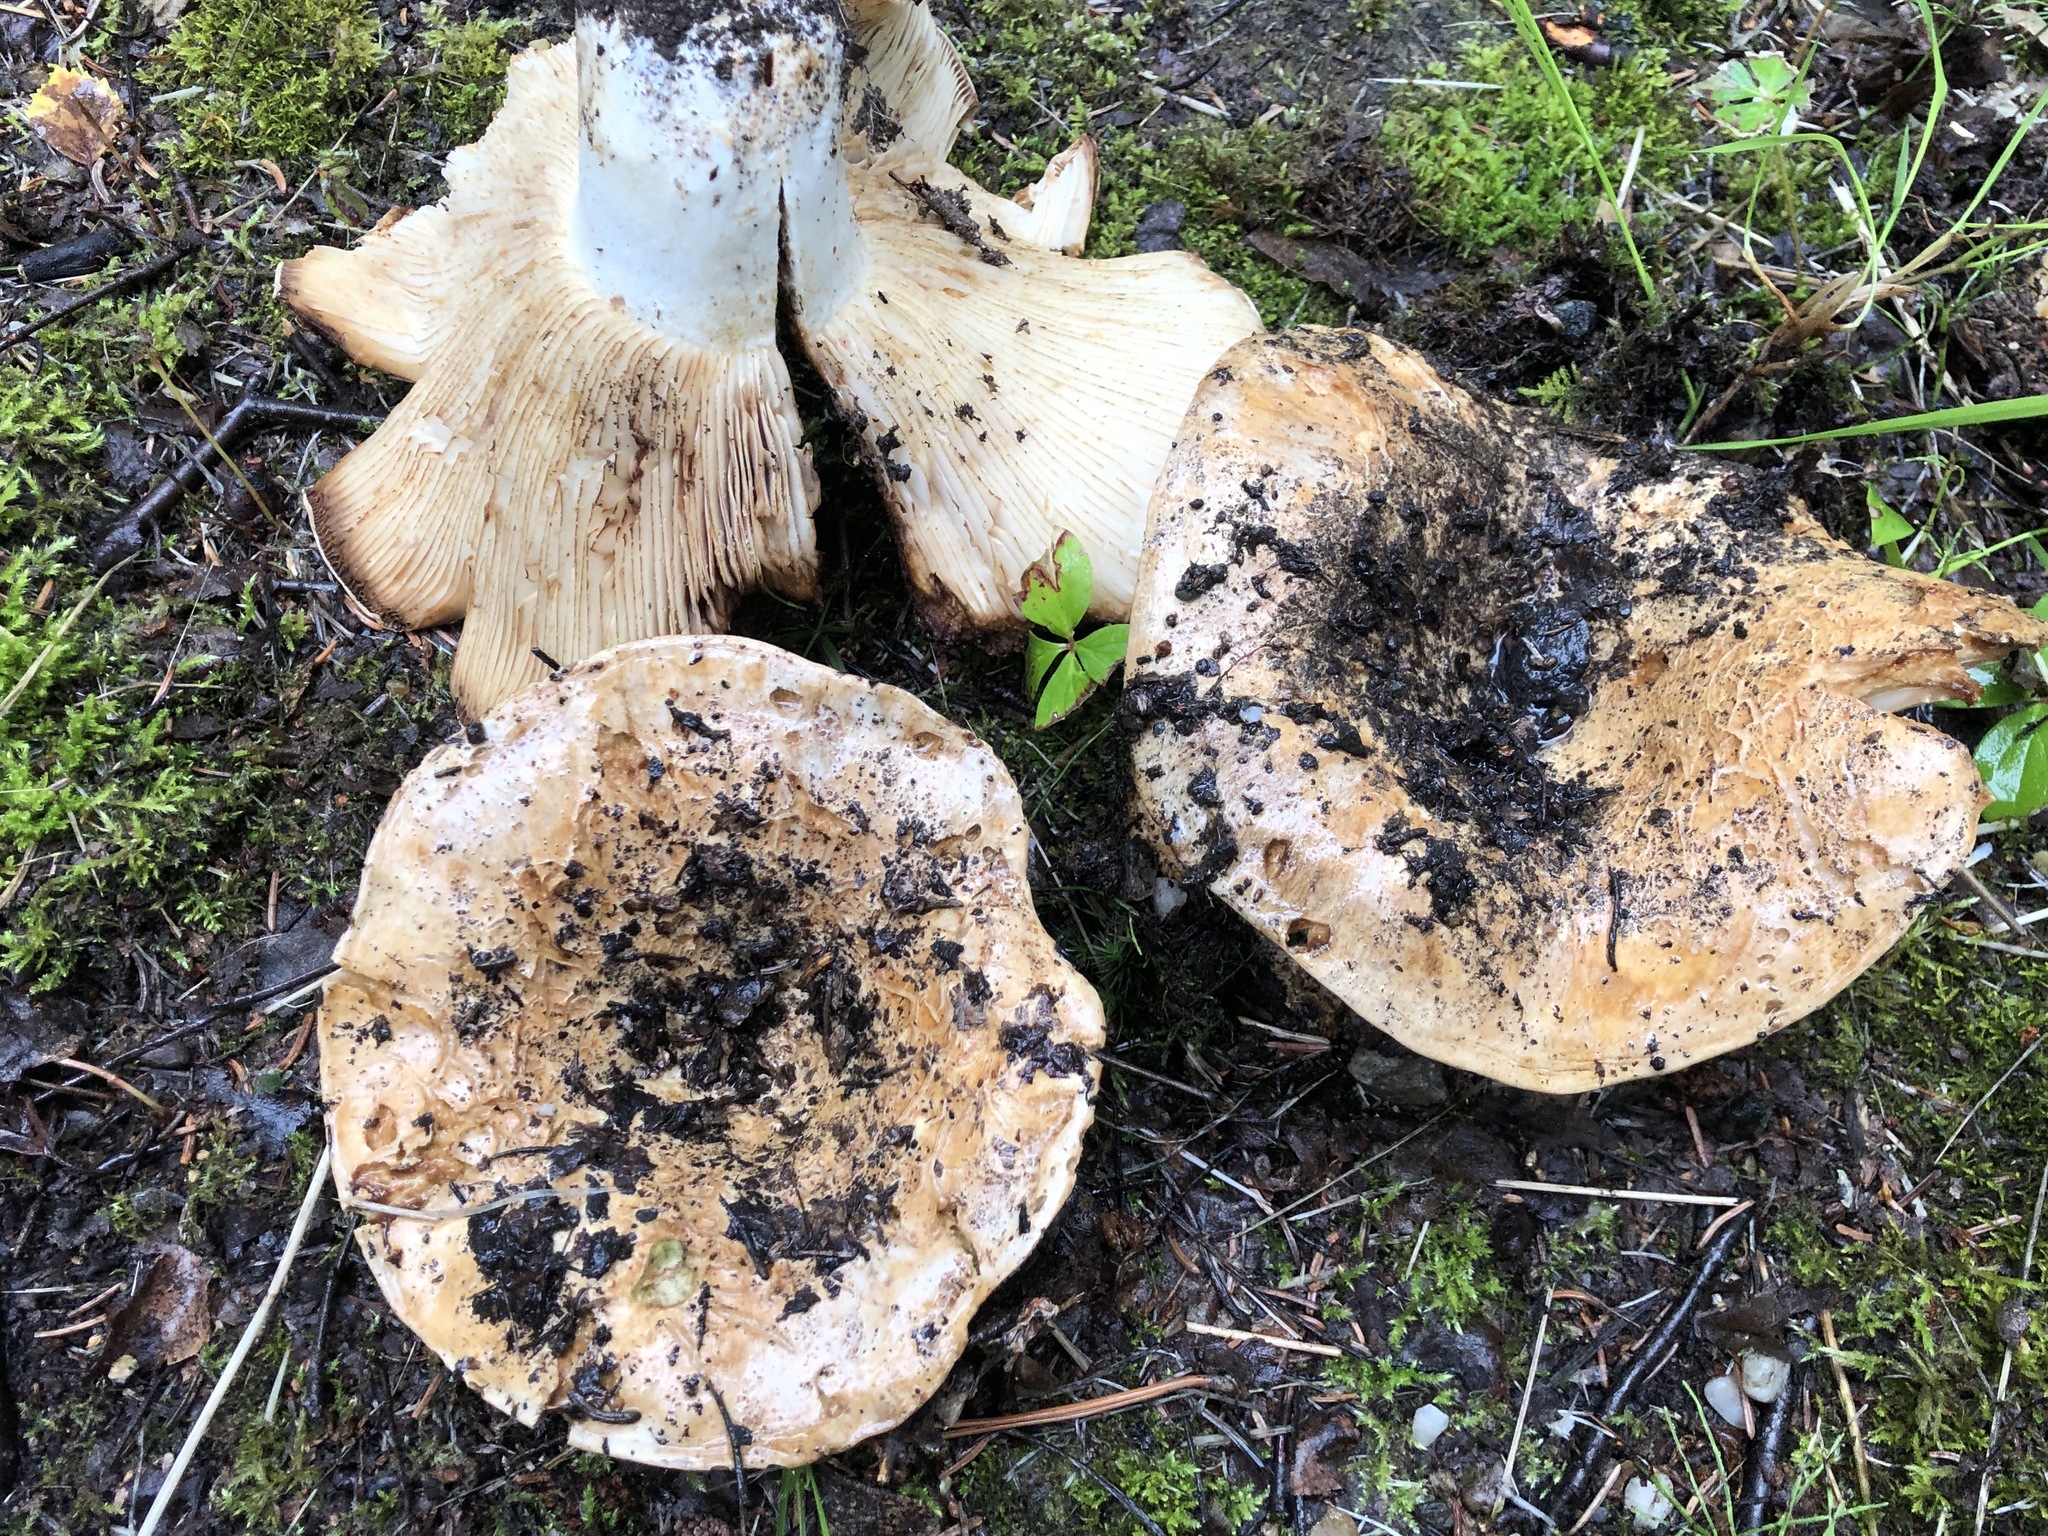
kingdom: Fungi
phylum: Basidiomycota
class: Agaricomycetes
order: Russulales
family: Russulaceae
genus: Russula
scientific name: Russula brevipes
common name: Short-stemmed russula
